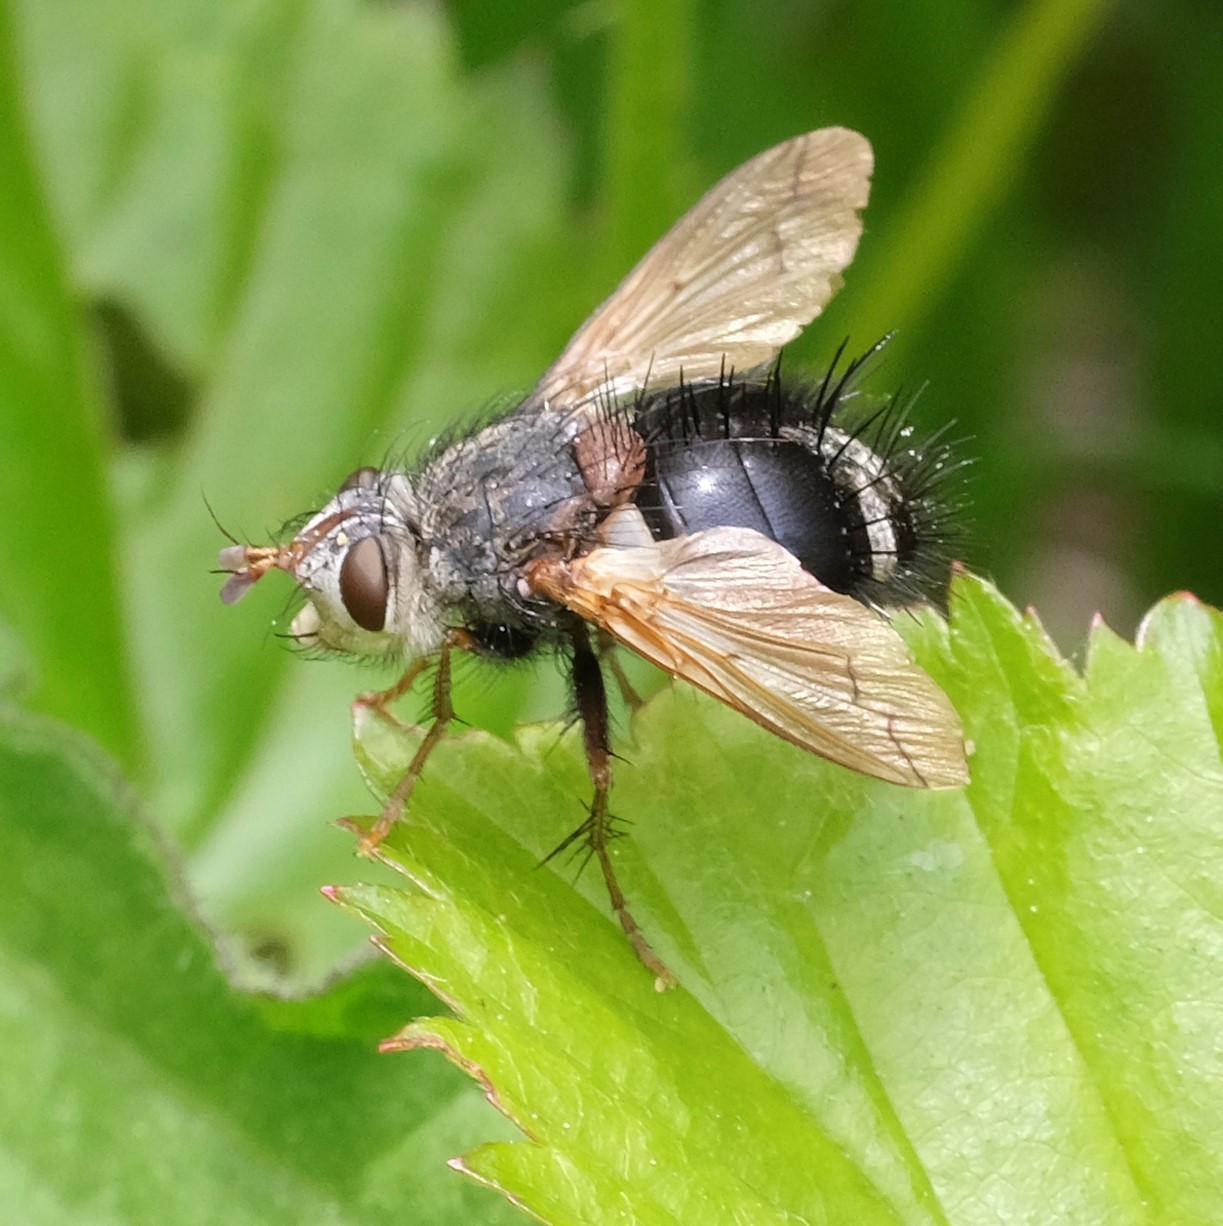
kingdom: Animalia
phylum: Arthropoda
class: Insecta
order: Diptera
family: Tachinidae
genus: Epalpus
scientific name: Epalpus signifer
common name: Early tachinid fly
